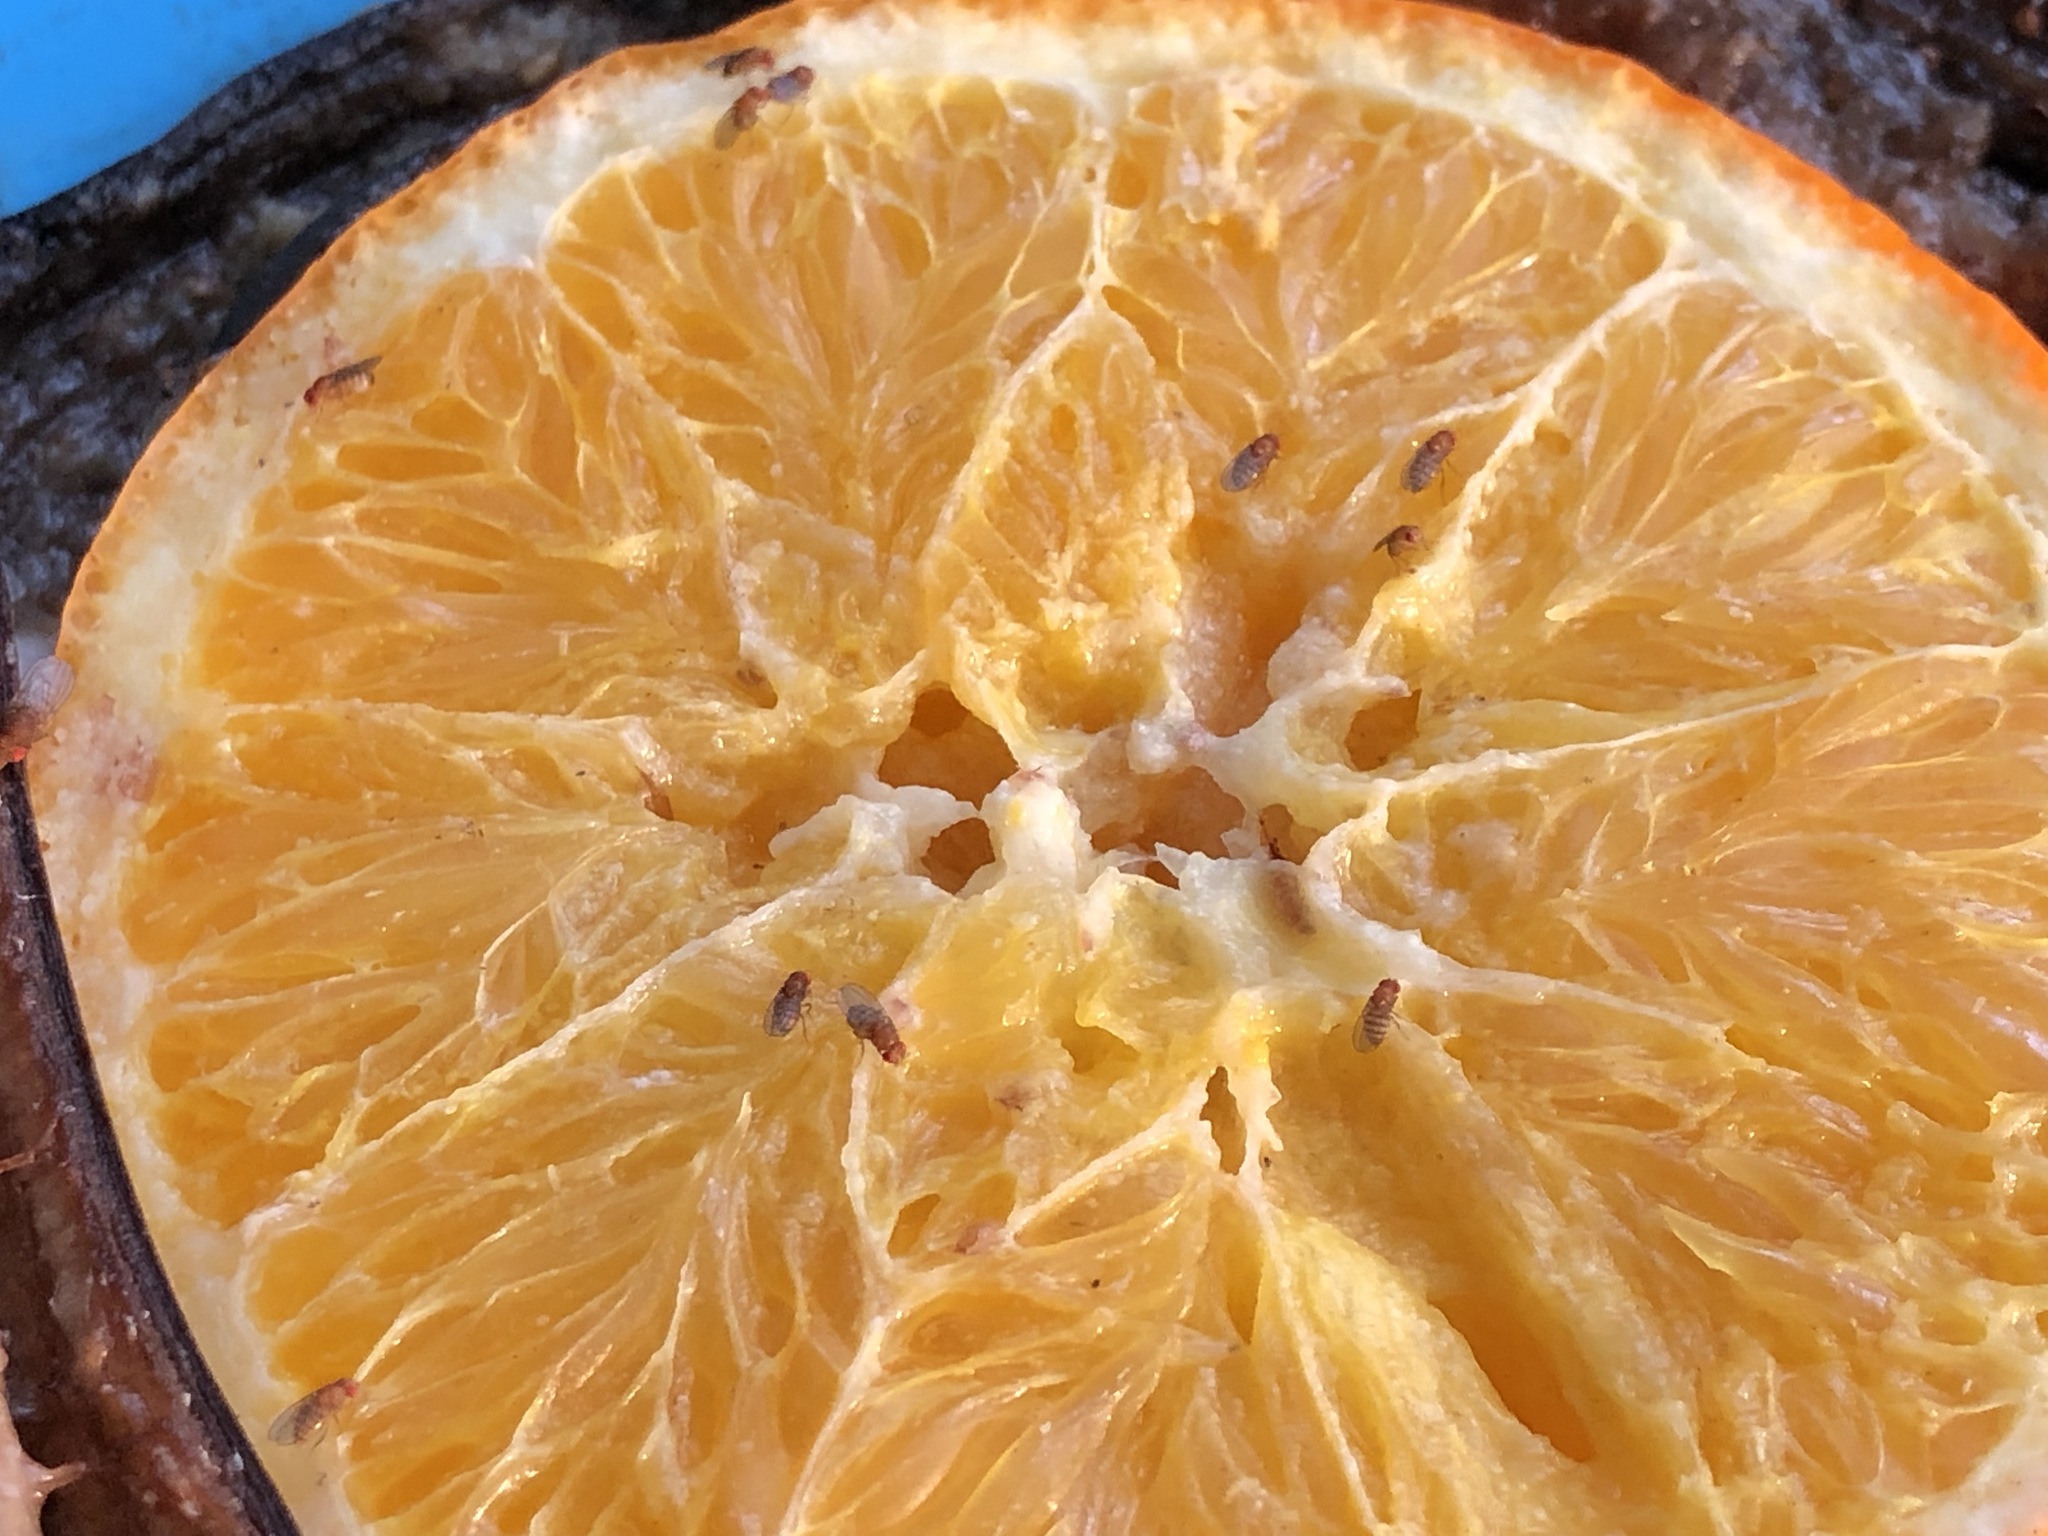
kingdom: Animalia
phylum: Arthropoda
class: Insecta
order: Diptera
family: Drosophilidae
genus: Drosophila
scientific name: Drosophila
